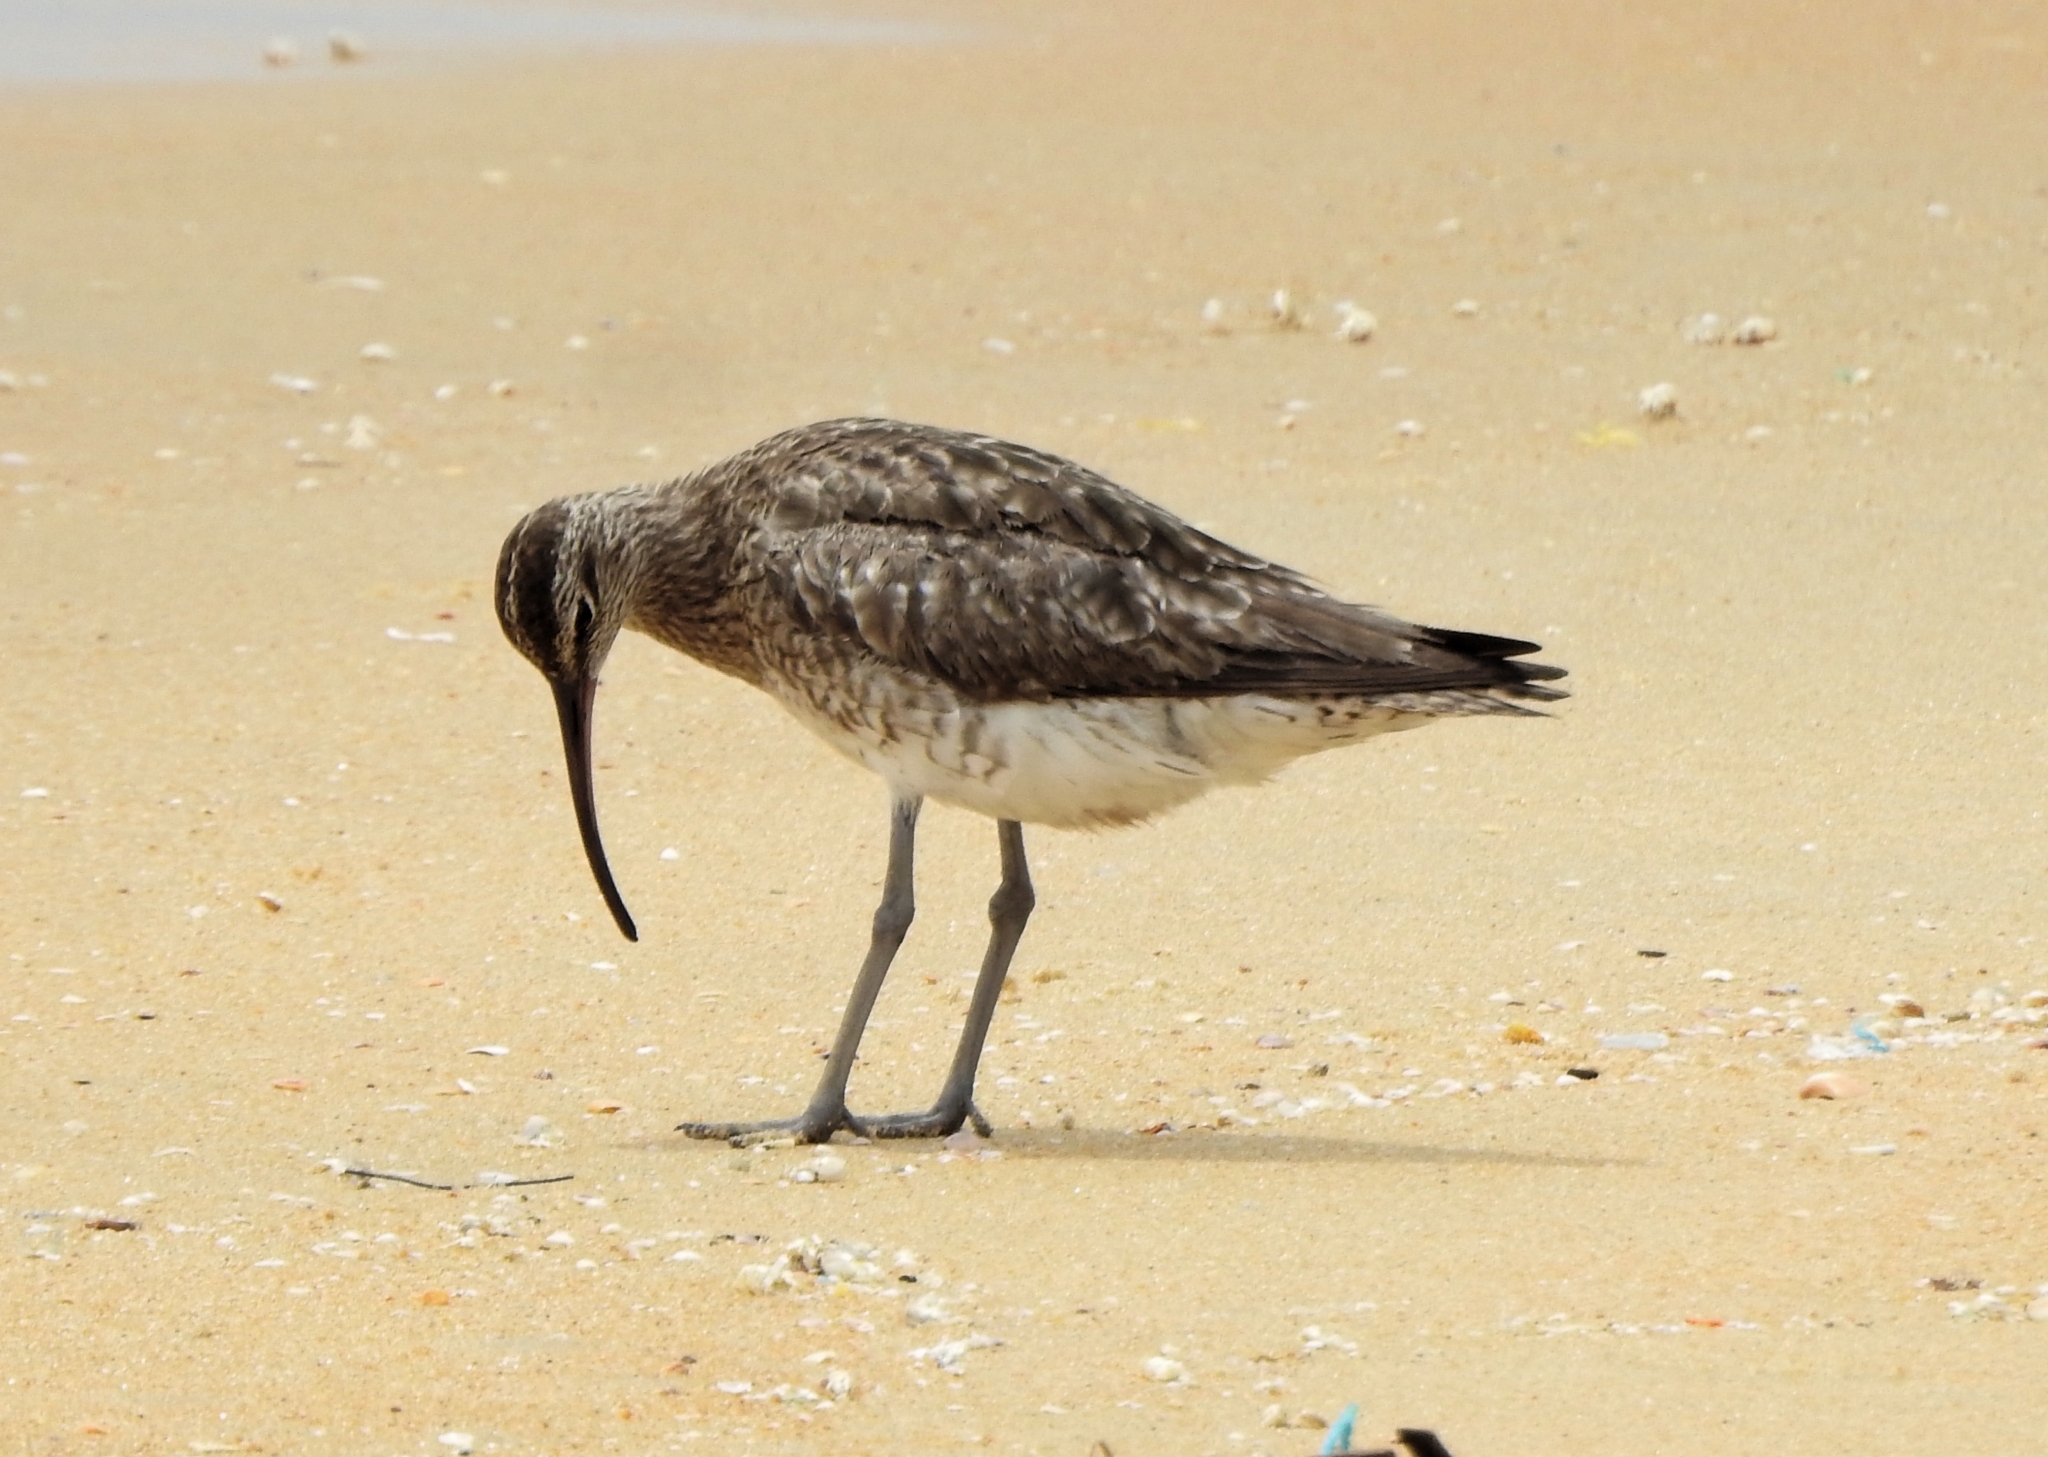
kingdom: Animalia
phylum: Chordata
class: Aves
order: Charadriiformes
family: Scolopacidae
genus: Numenius
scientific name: Numenius phaeopus
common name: Whimbrel
